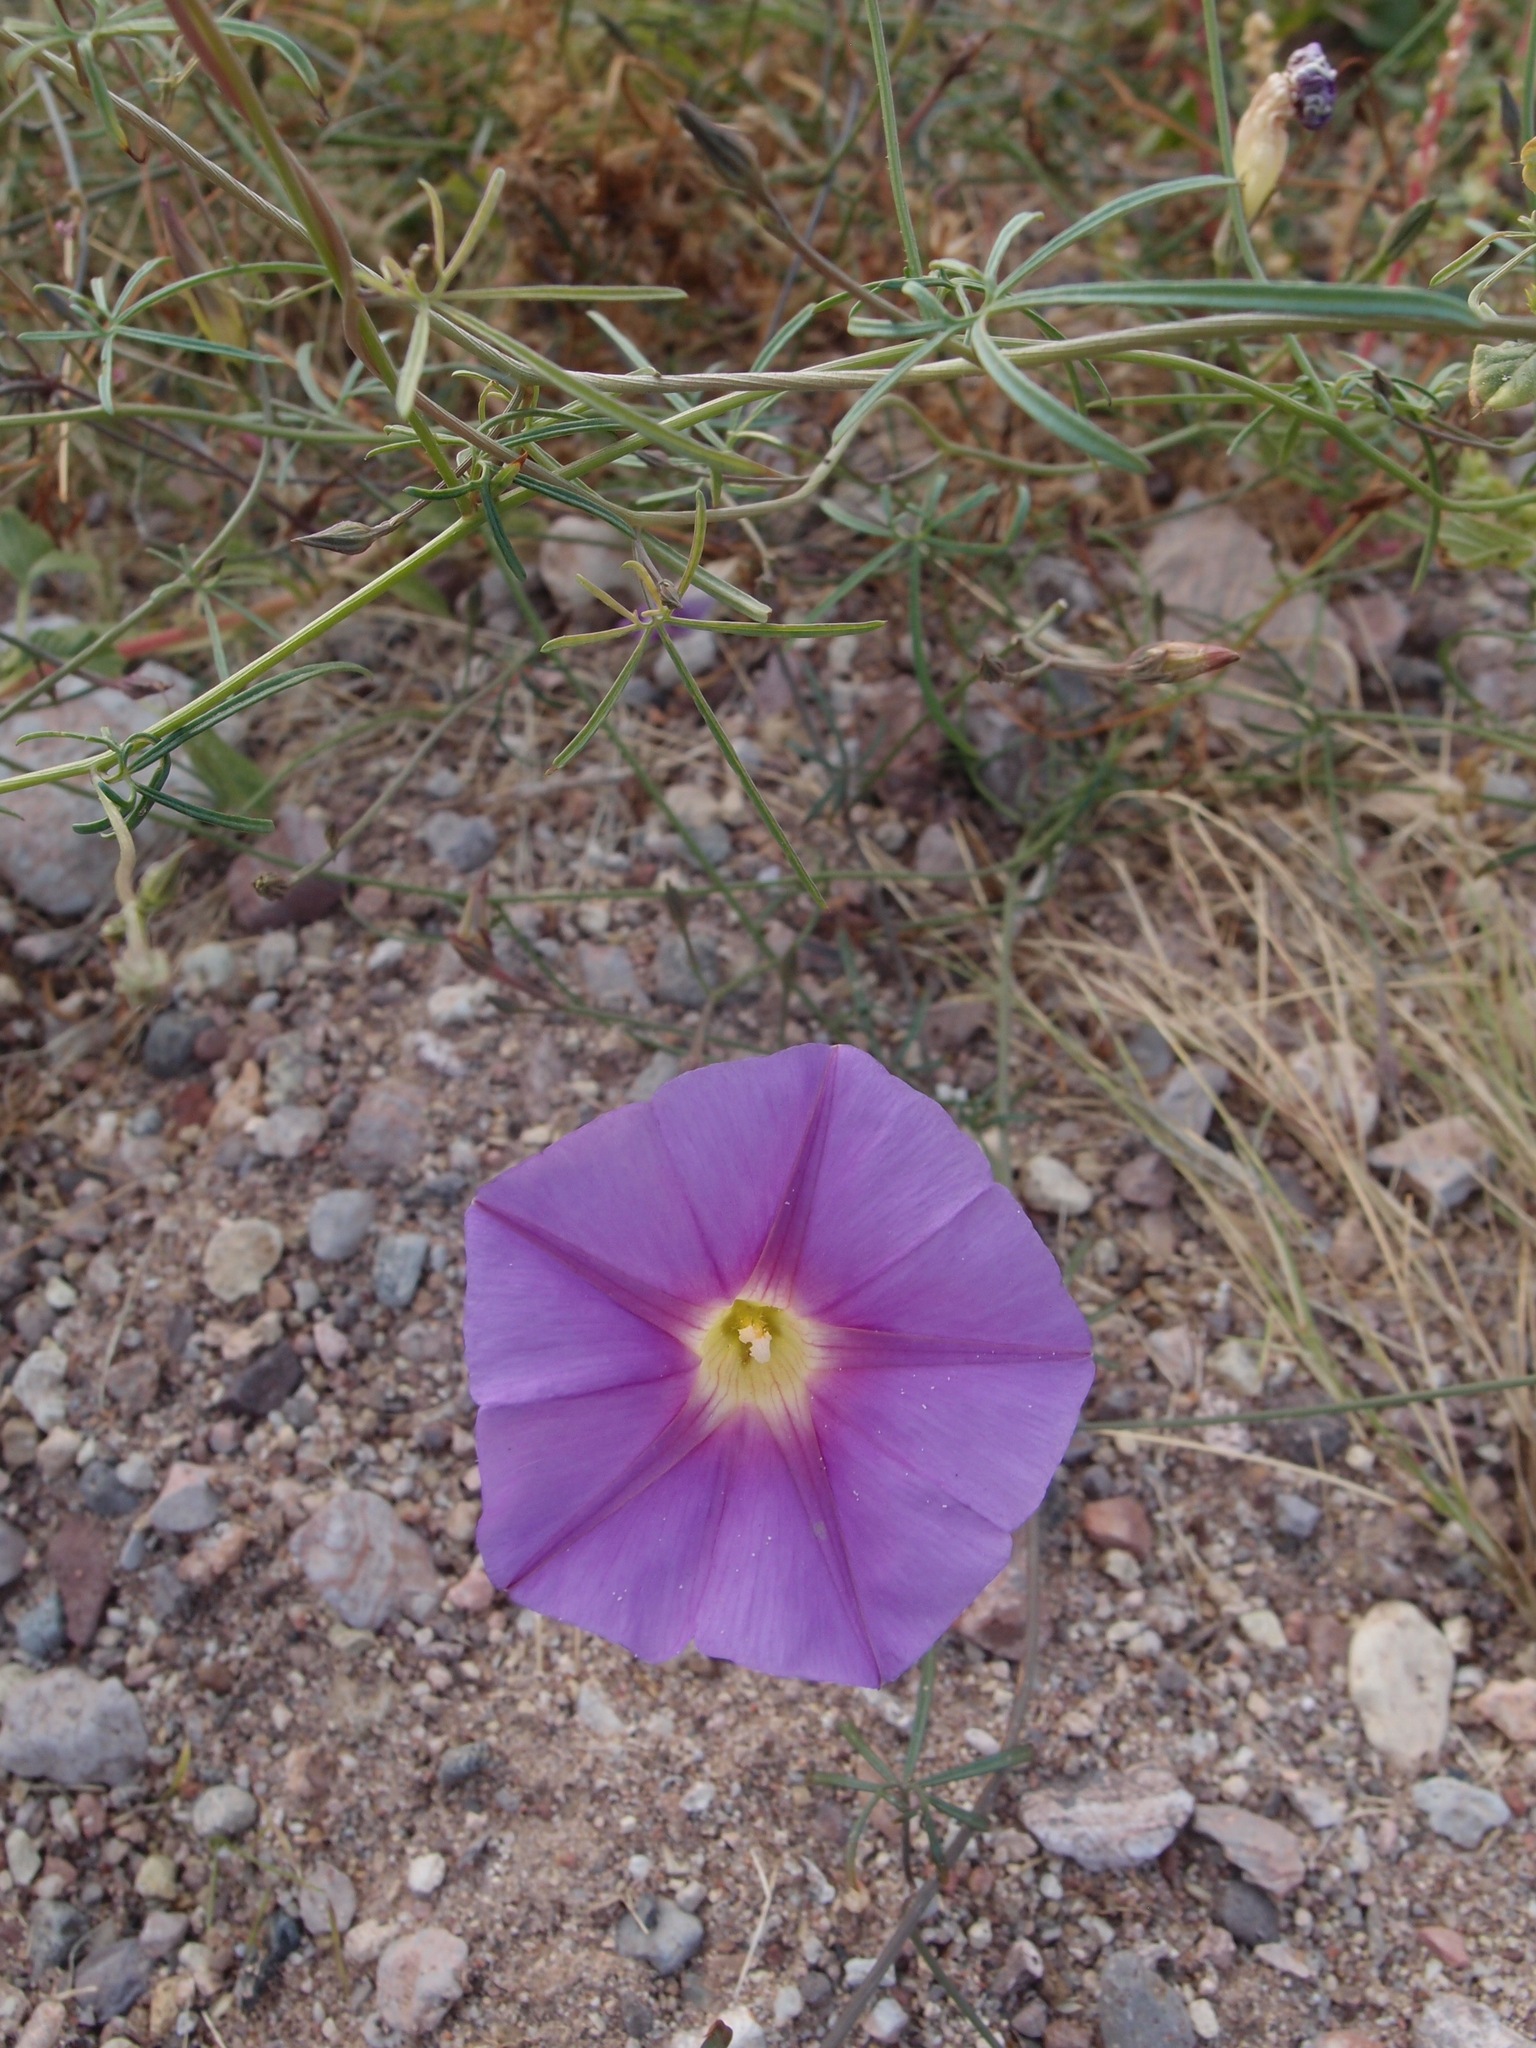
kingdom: Plantae
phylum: Tracheophyta
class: Magnoliopsida
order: Solanales
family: Convolvulaceae
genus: Ipomoea
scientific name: Ipomoea ternifolia
